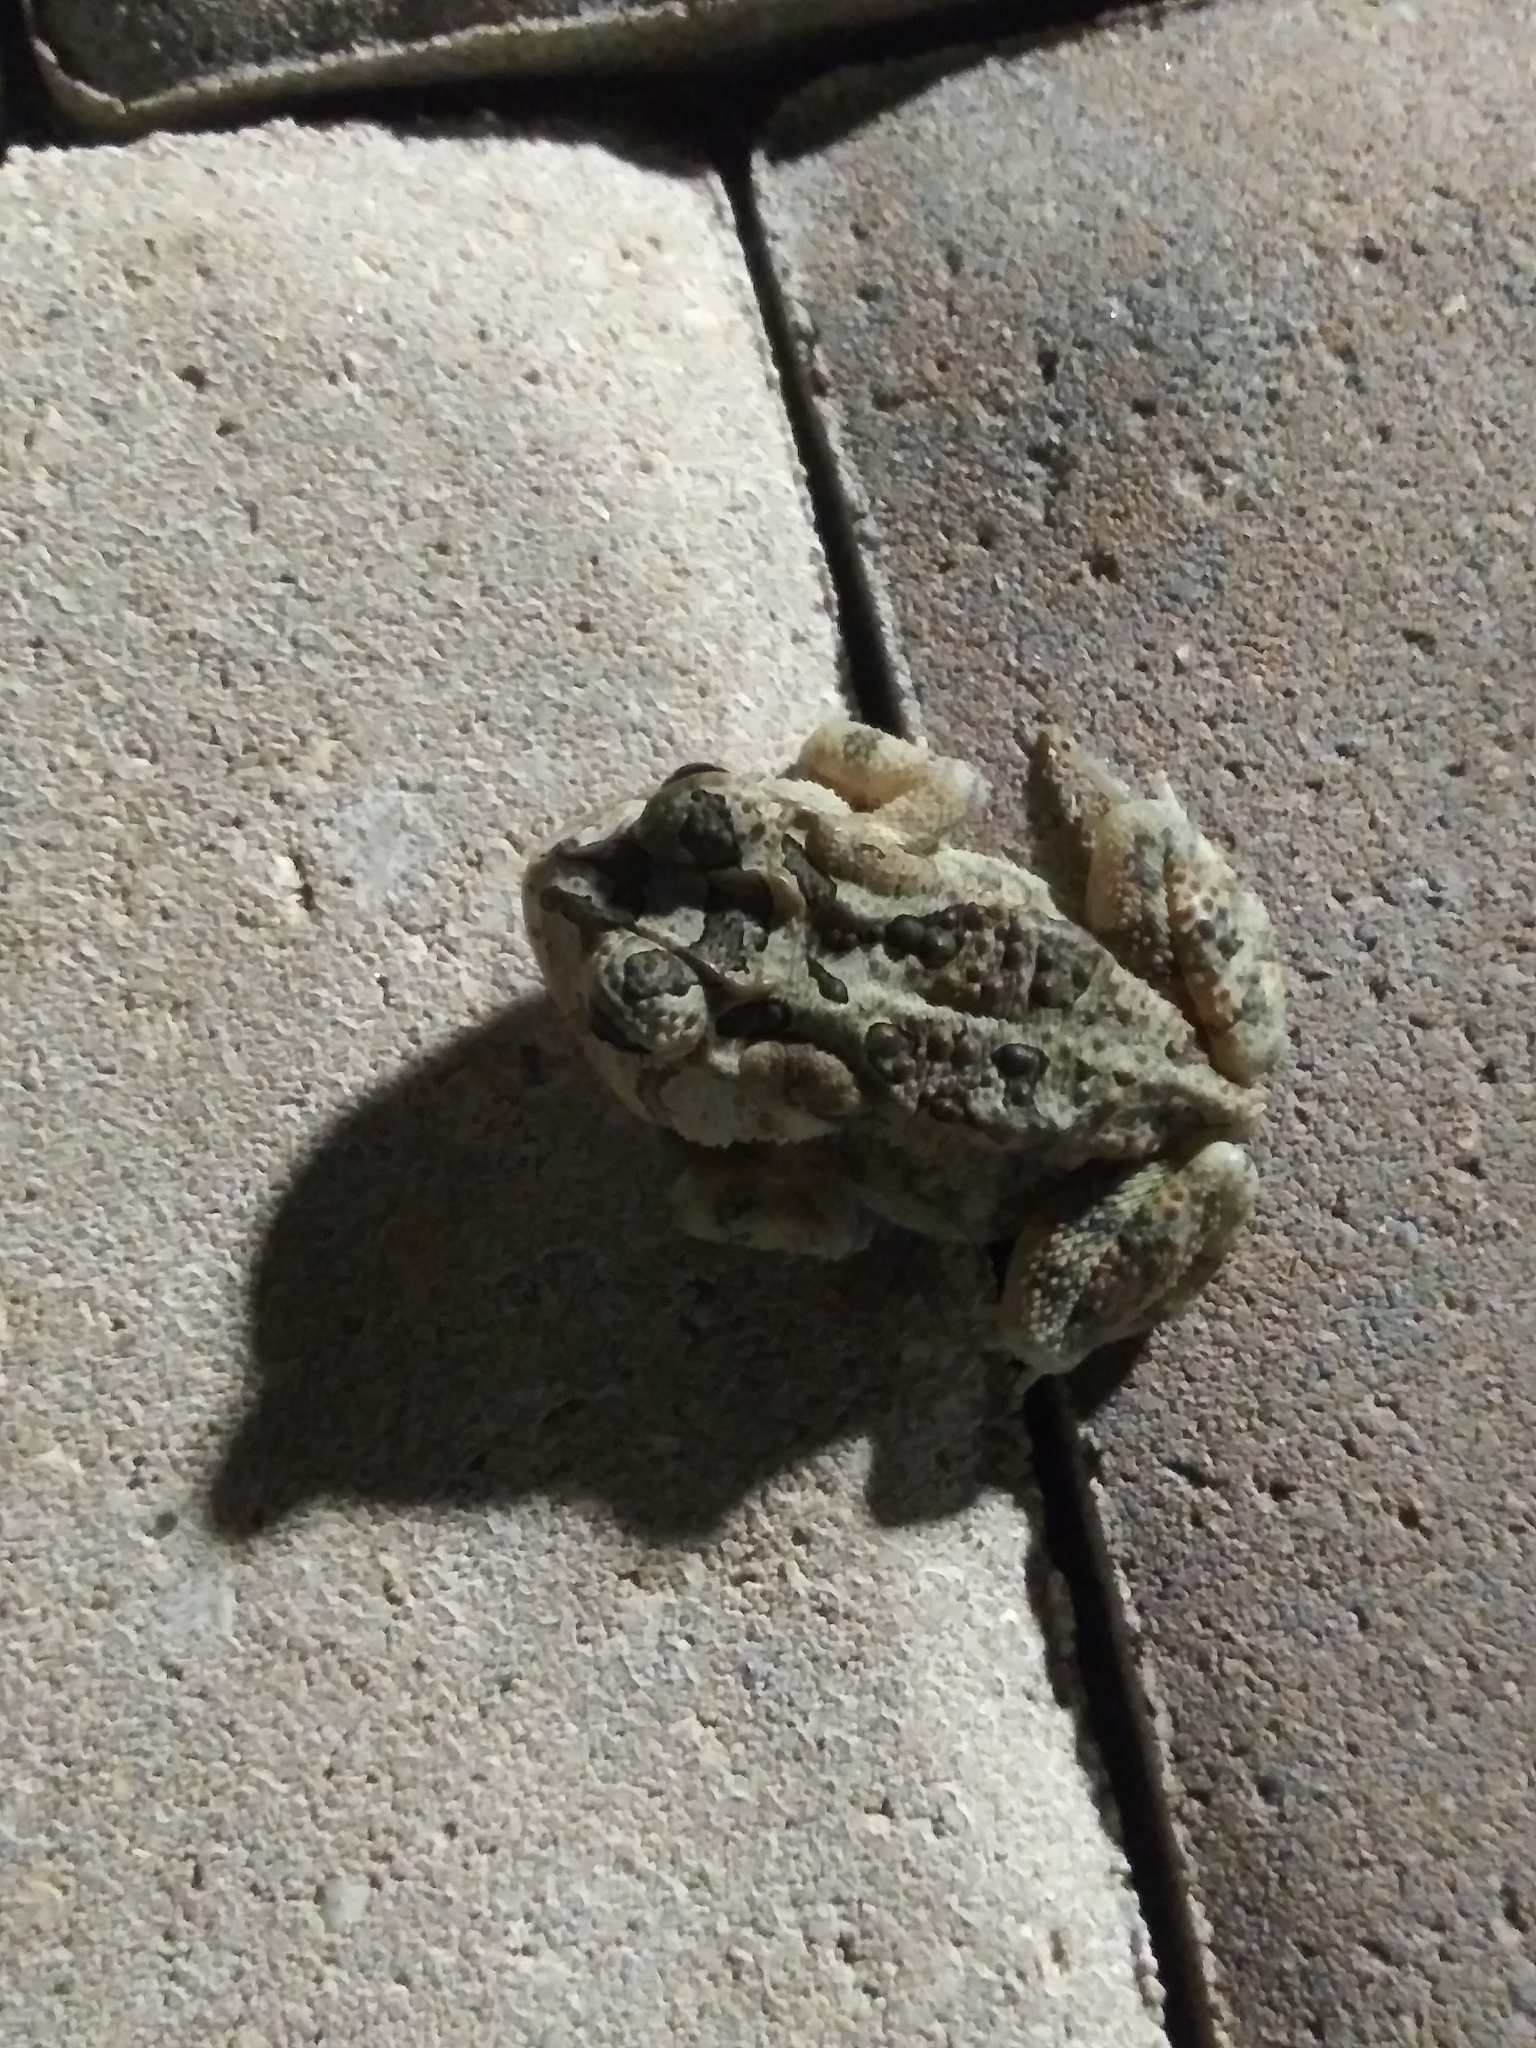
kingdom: Animalia
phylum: Chordata
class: Amphibia
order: Anura
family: Bufonidae
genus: Anaxyrus
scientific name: Anaxyrus terrestris
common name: Southern toad
